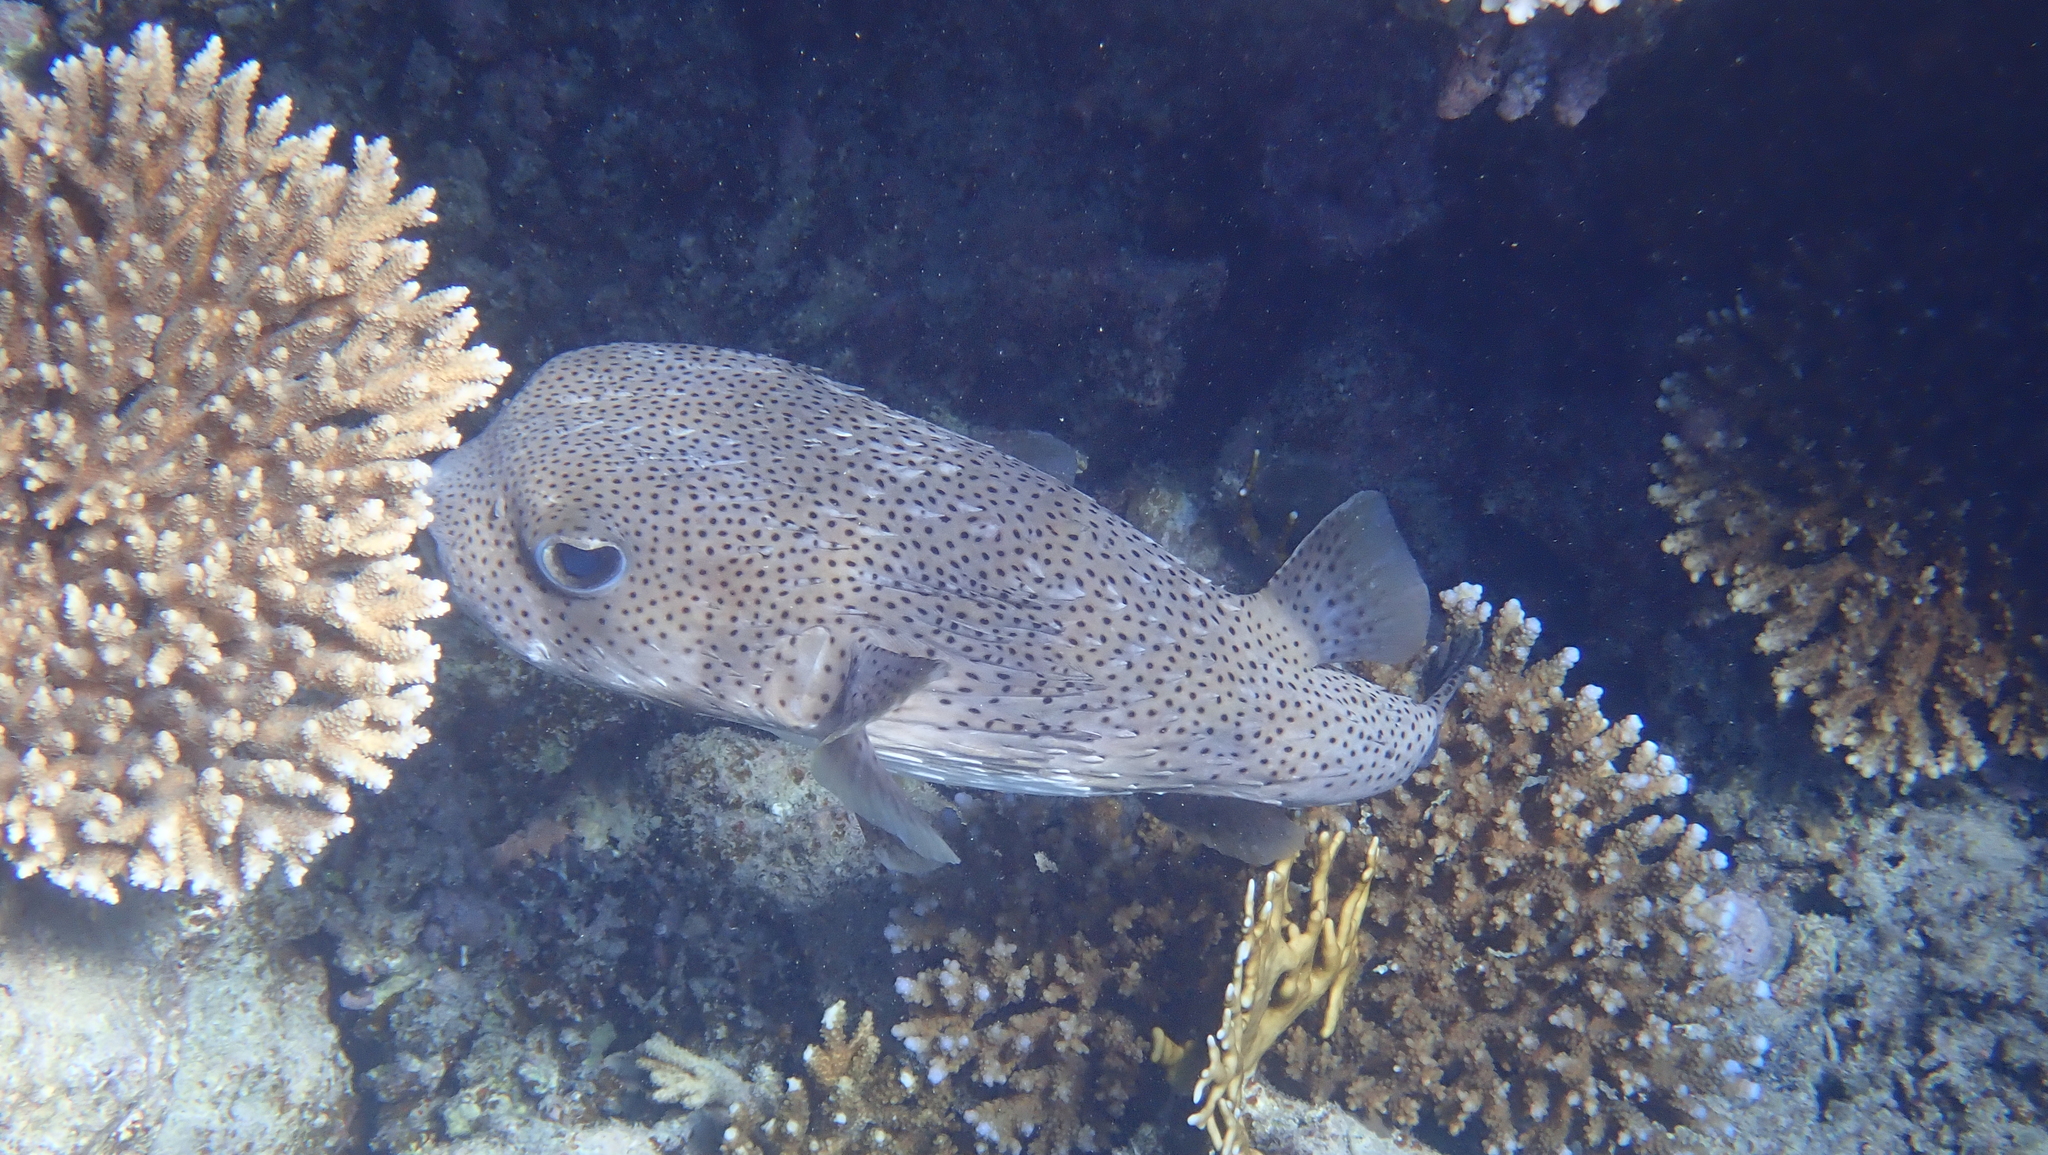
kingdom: Animalia
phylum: Chordata
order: Tetraodontiformes
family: Diodontidae
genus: Diodon
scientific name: Diodon hystrix
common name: Giant porcupinefish
